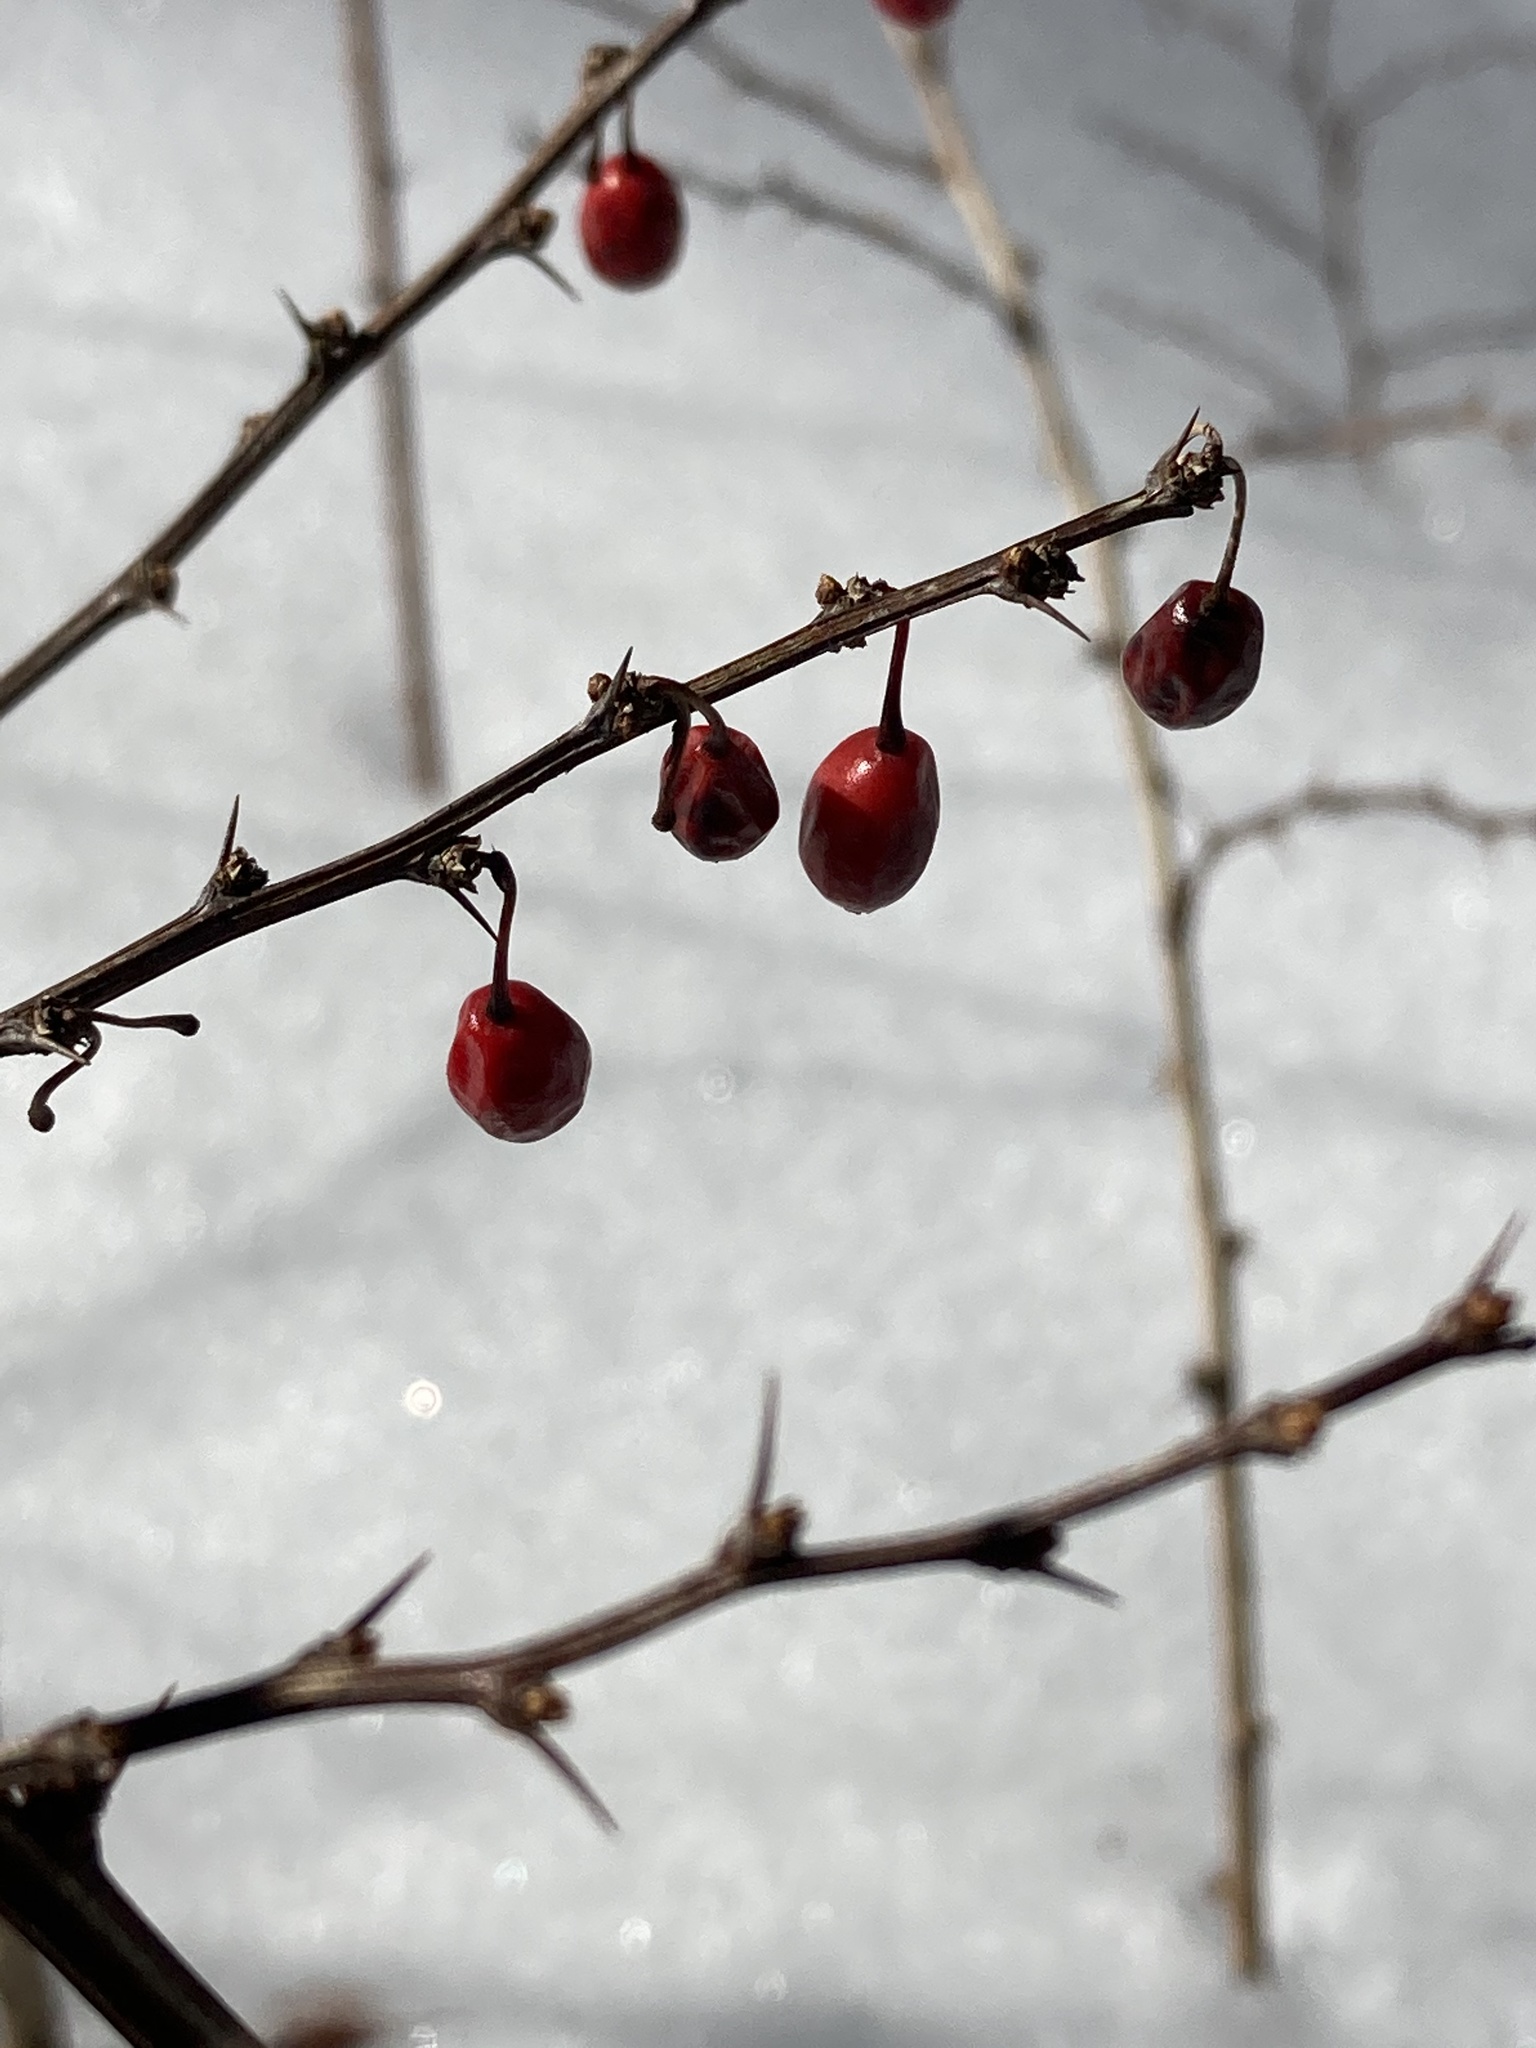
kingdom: Plantae
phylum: Tracheophyta
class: Magnoliopsida
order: Ranunculales
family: Berberidaceae
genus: Berberis
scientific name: Berberis thunbergii
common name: Japanese barberry
